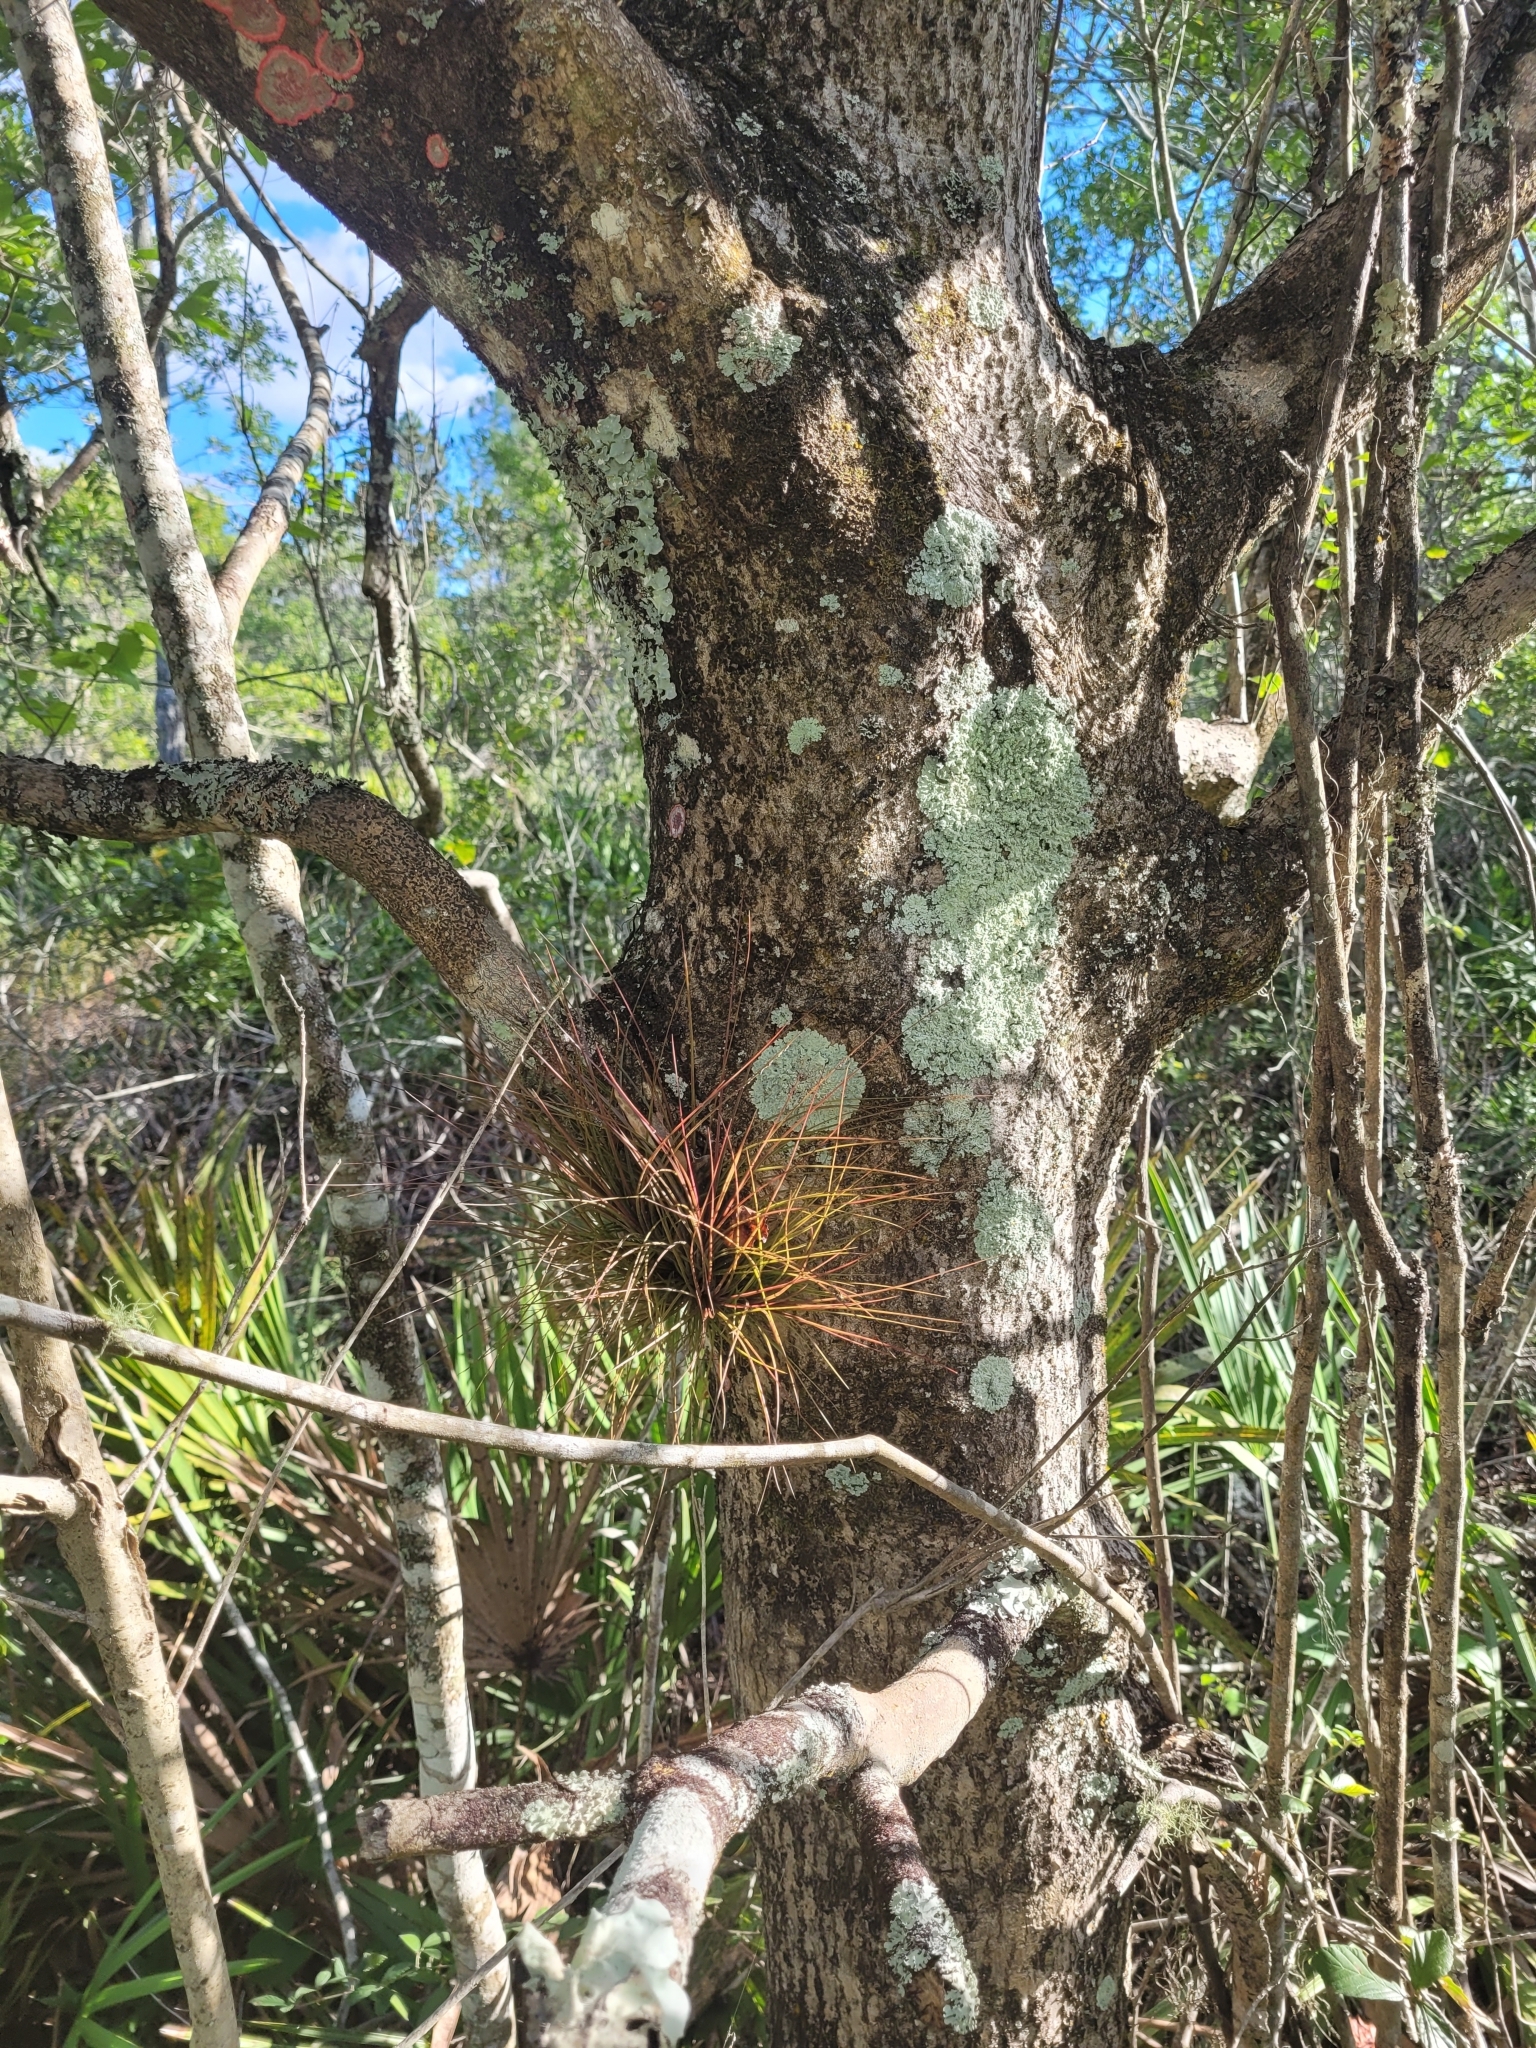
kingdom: Plantae
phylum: Tracheophyta
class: Liliopsida
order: Poales
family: Bromeliaceae
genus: Tillandsia
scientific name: Tillandsia setacea
